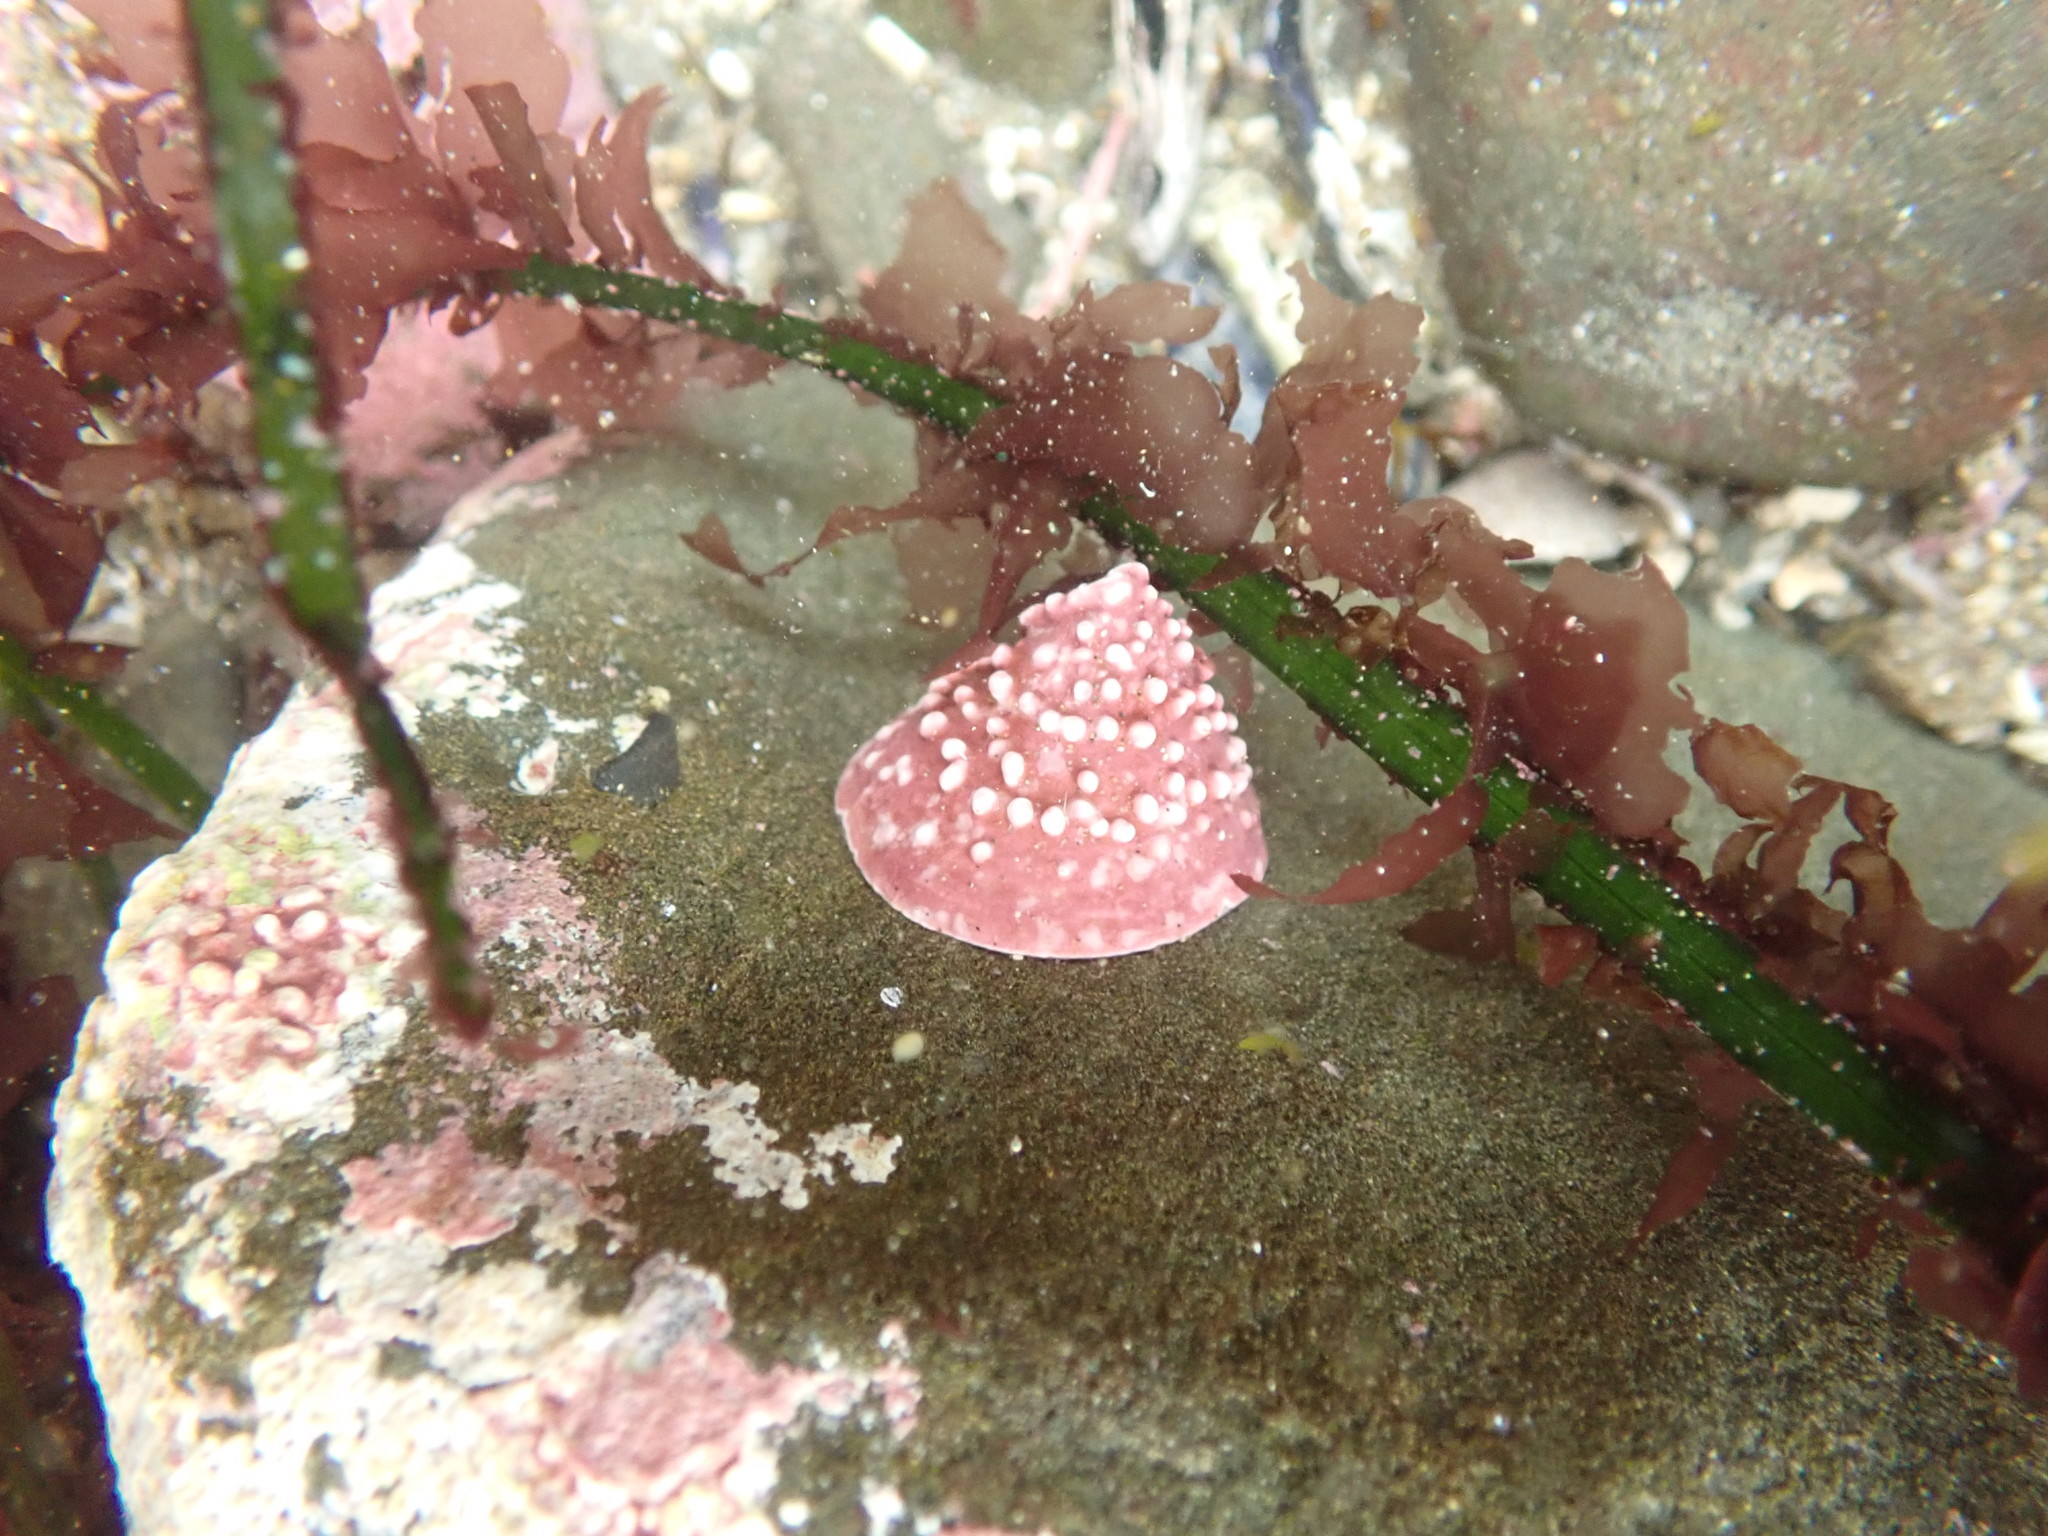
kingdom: Animalia
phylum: Mollusca
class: Gastropoda
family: Acmaeidae
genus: Acmaea
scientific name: Acmaea mitra
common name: Pacific white cap limpet
